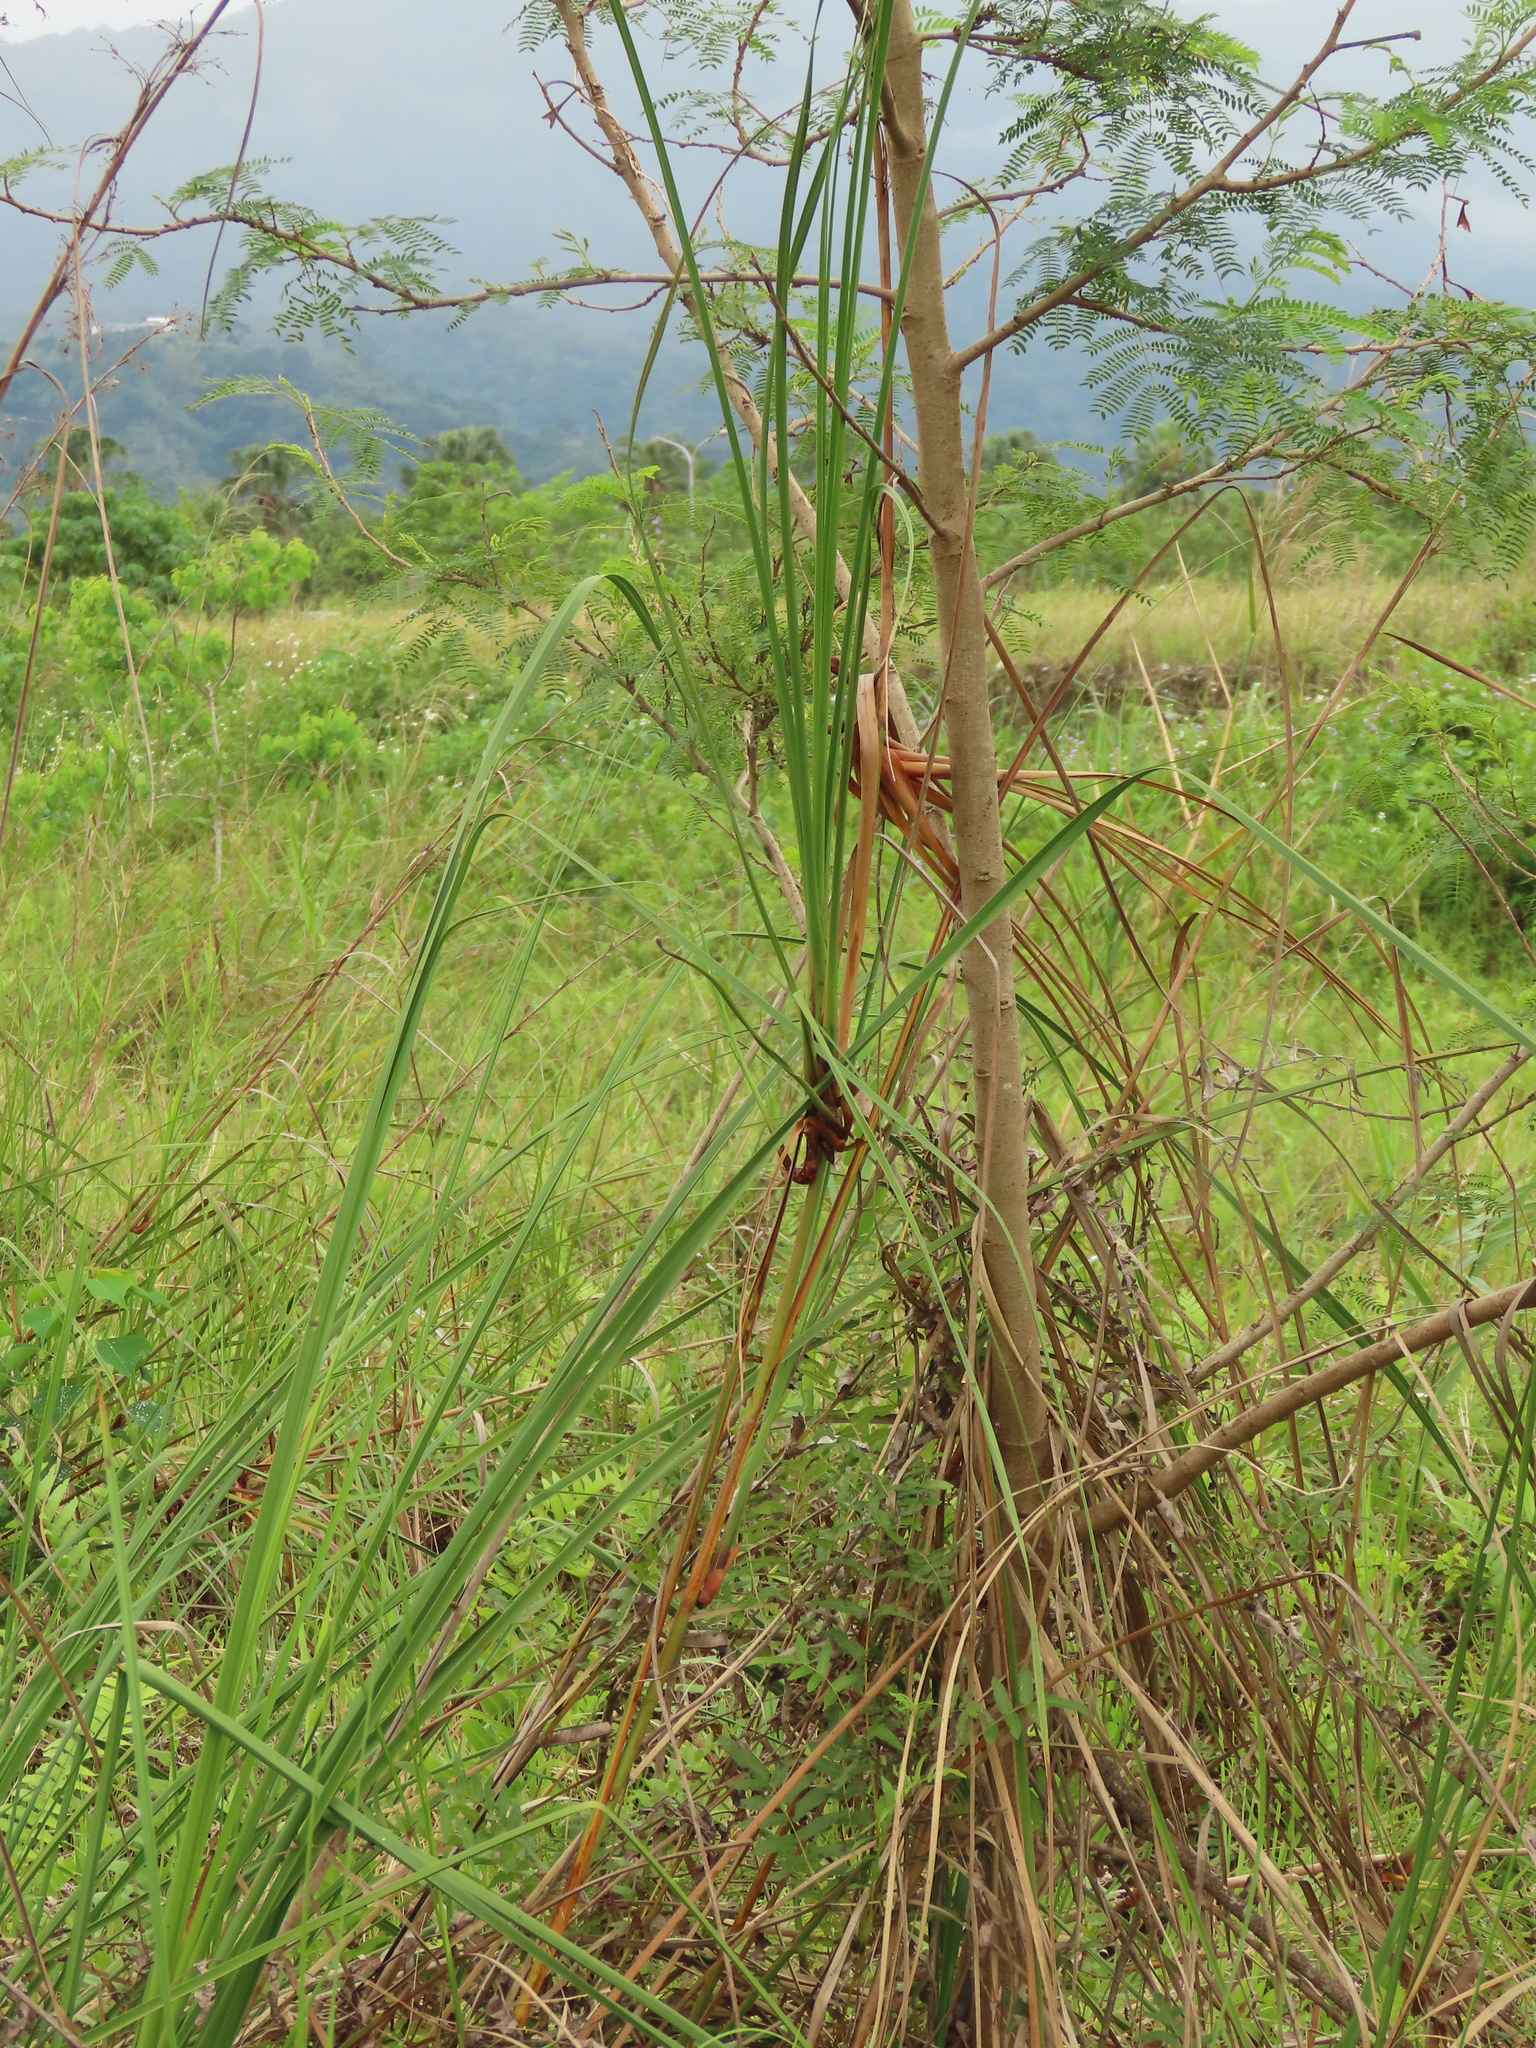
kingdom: Plantae
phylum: Tracheophyta
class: Liliopsida
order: Poales
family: Cyperaceae
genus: Cladium
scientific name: Cladium mariscus
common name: Great fen-sedge
